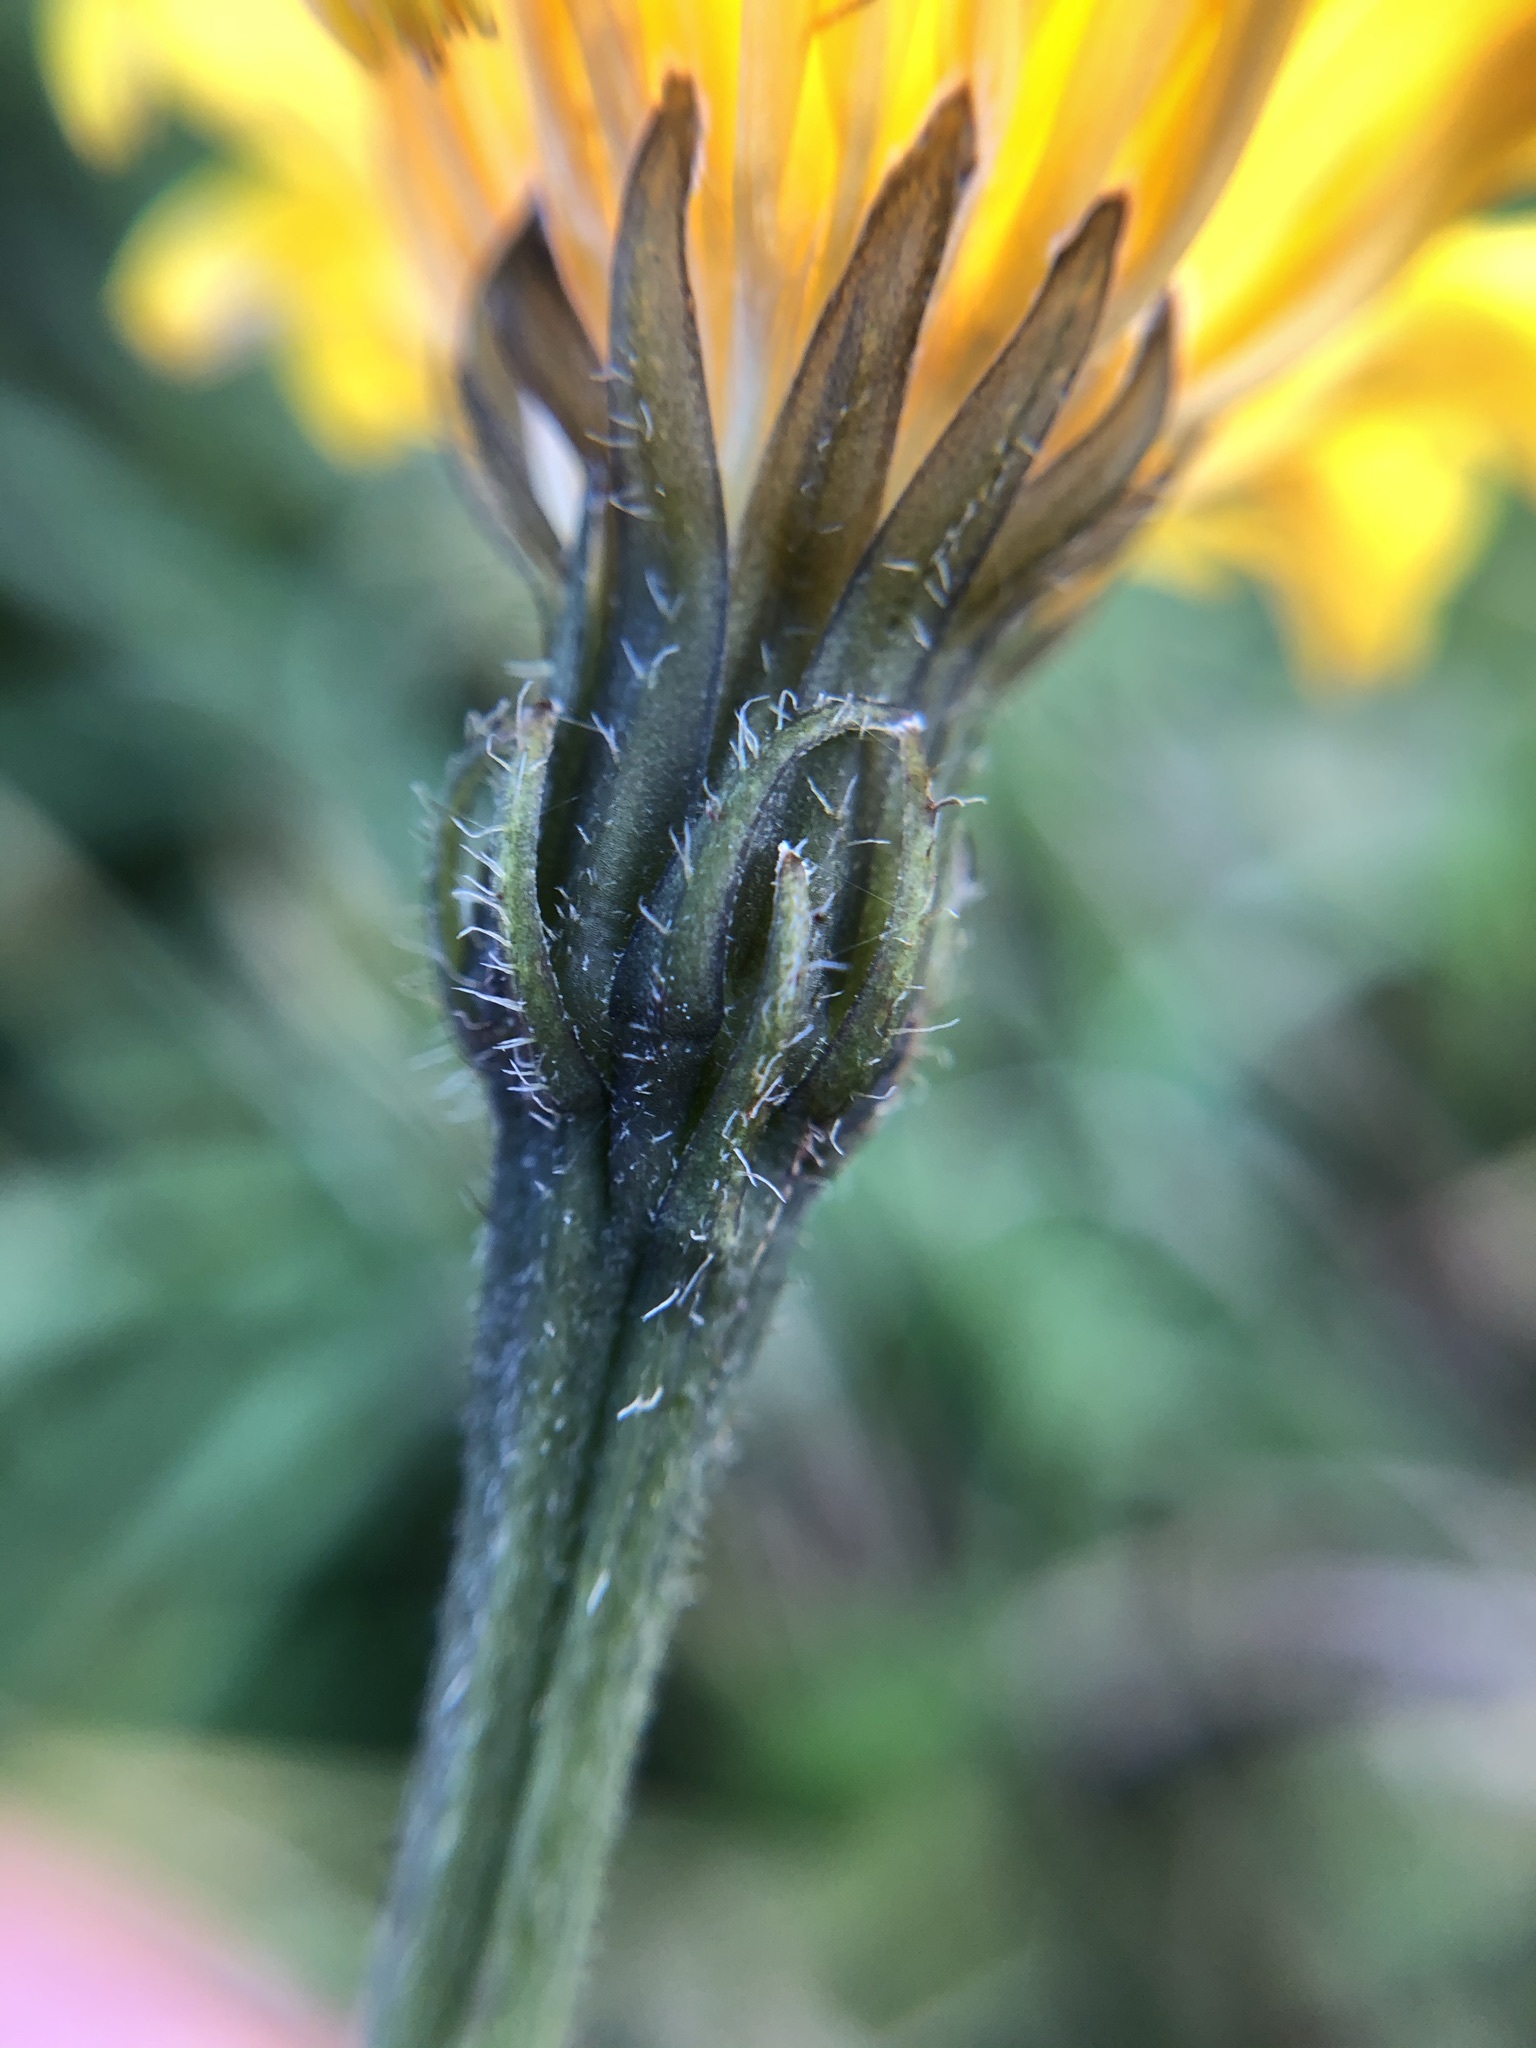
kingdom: Plantae
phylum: Tracheophyta
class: Magnoliopsida
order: Asterales
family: Asteraceae
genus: Leontodon
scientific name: Leontodon hispidus
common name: Rough hawkbit
